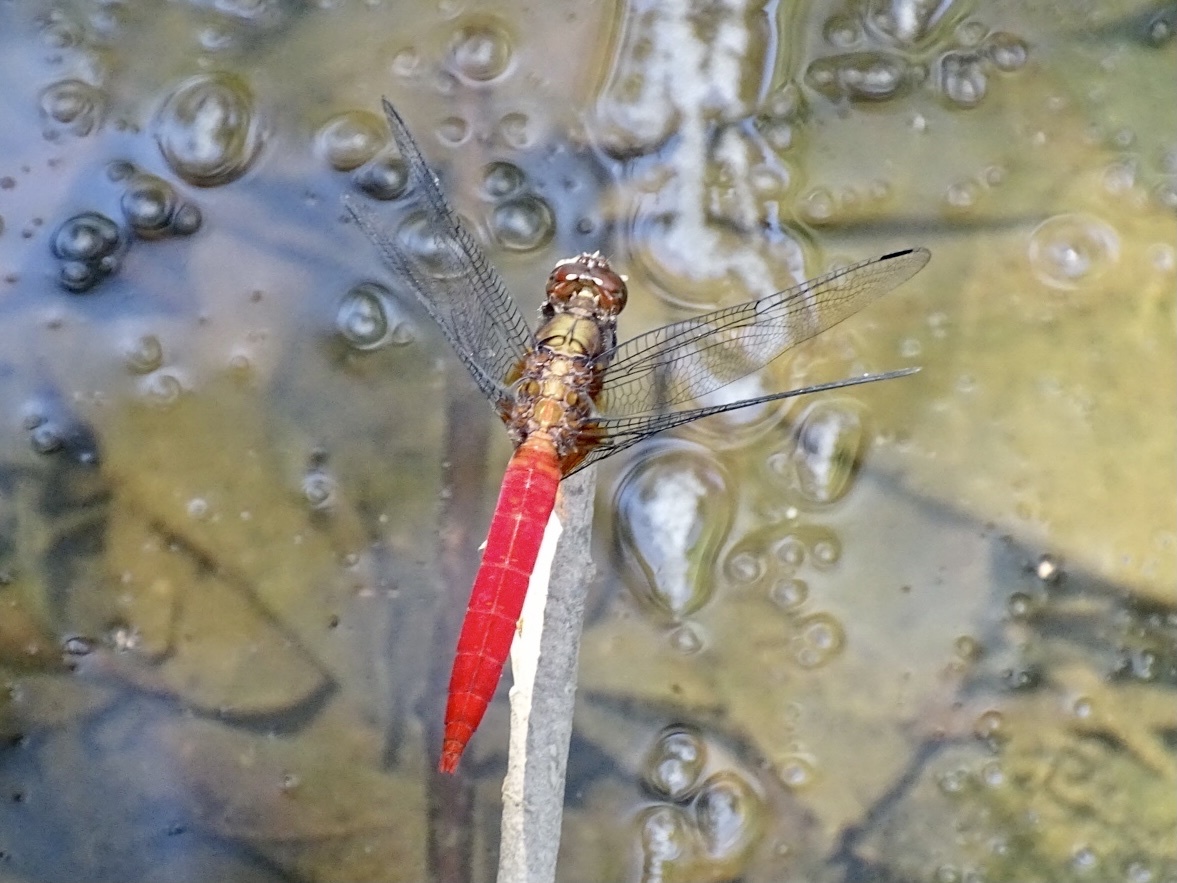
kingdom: Animalia
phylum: Arthropoda
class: Insecta
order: Odonata
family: Libellulidae
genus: Orthetrum
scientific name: Orthetrum chrysis
